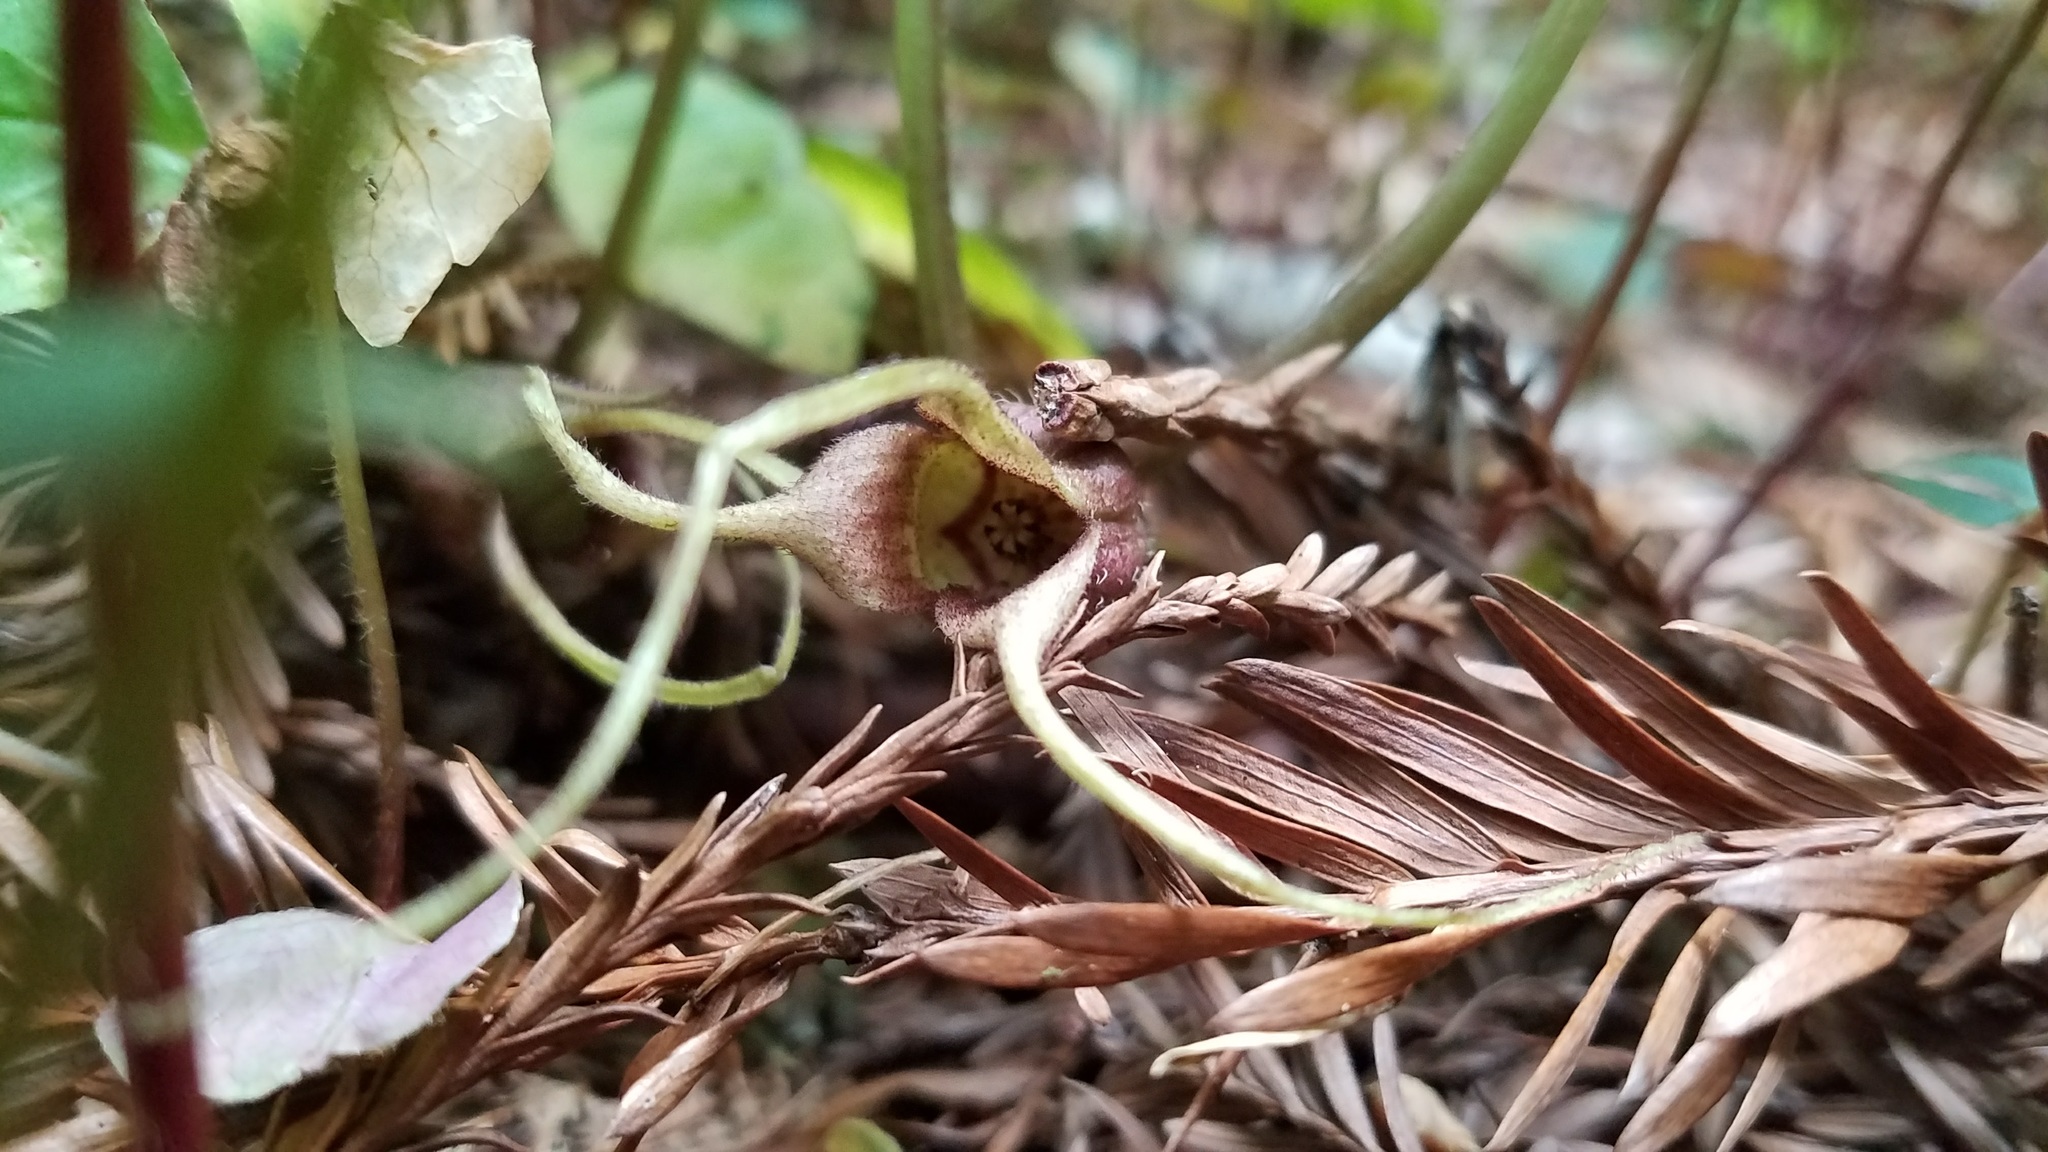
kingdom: Plantae
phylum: Tracheophyta
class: Magnoliopsida
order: Piperales
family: Aristolochiaceae
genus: Asarum
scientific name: Asarum caudatum
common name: Wild ginger
